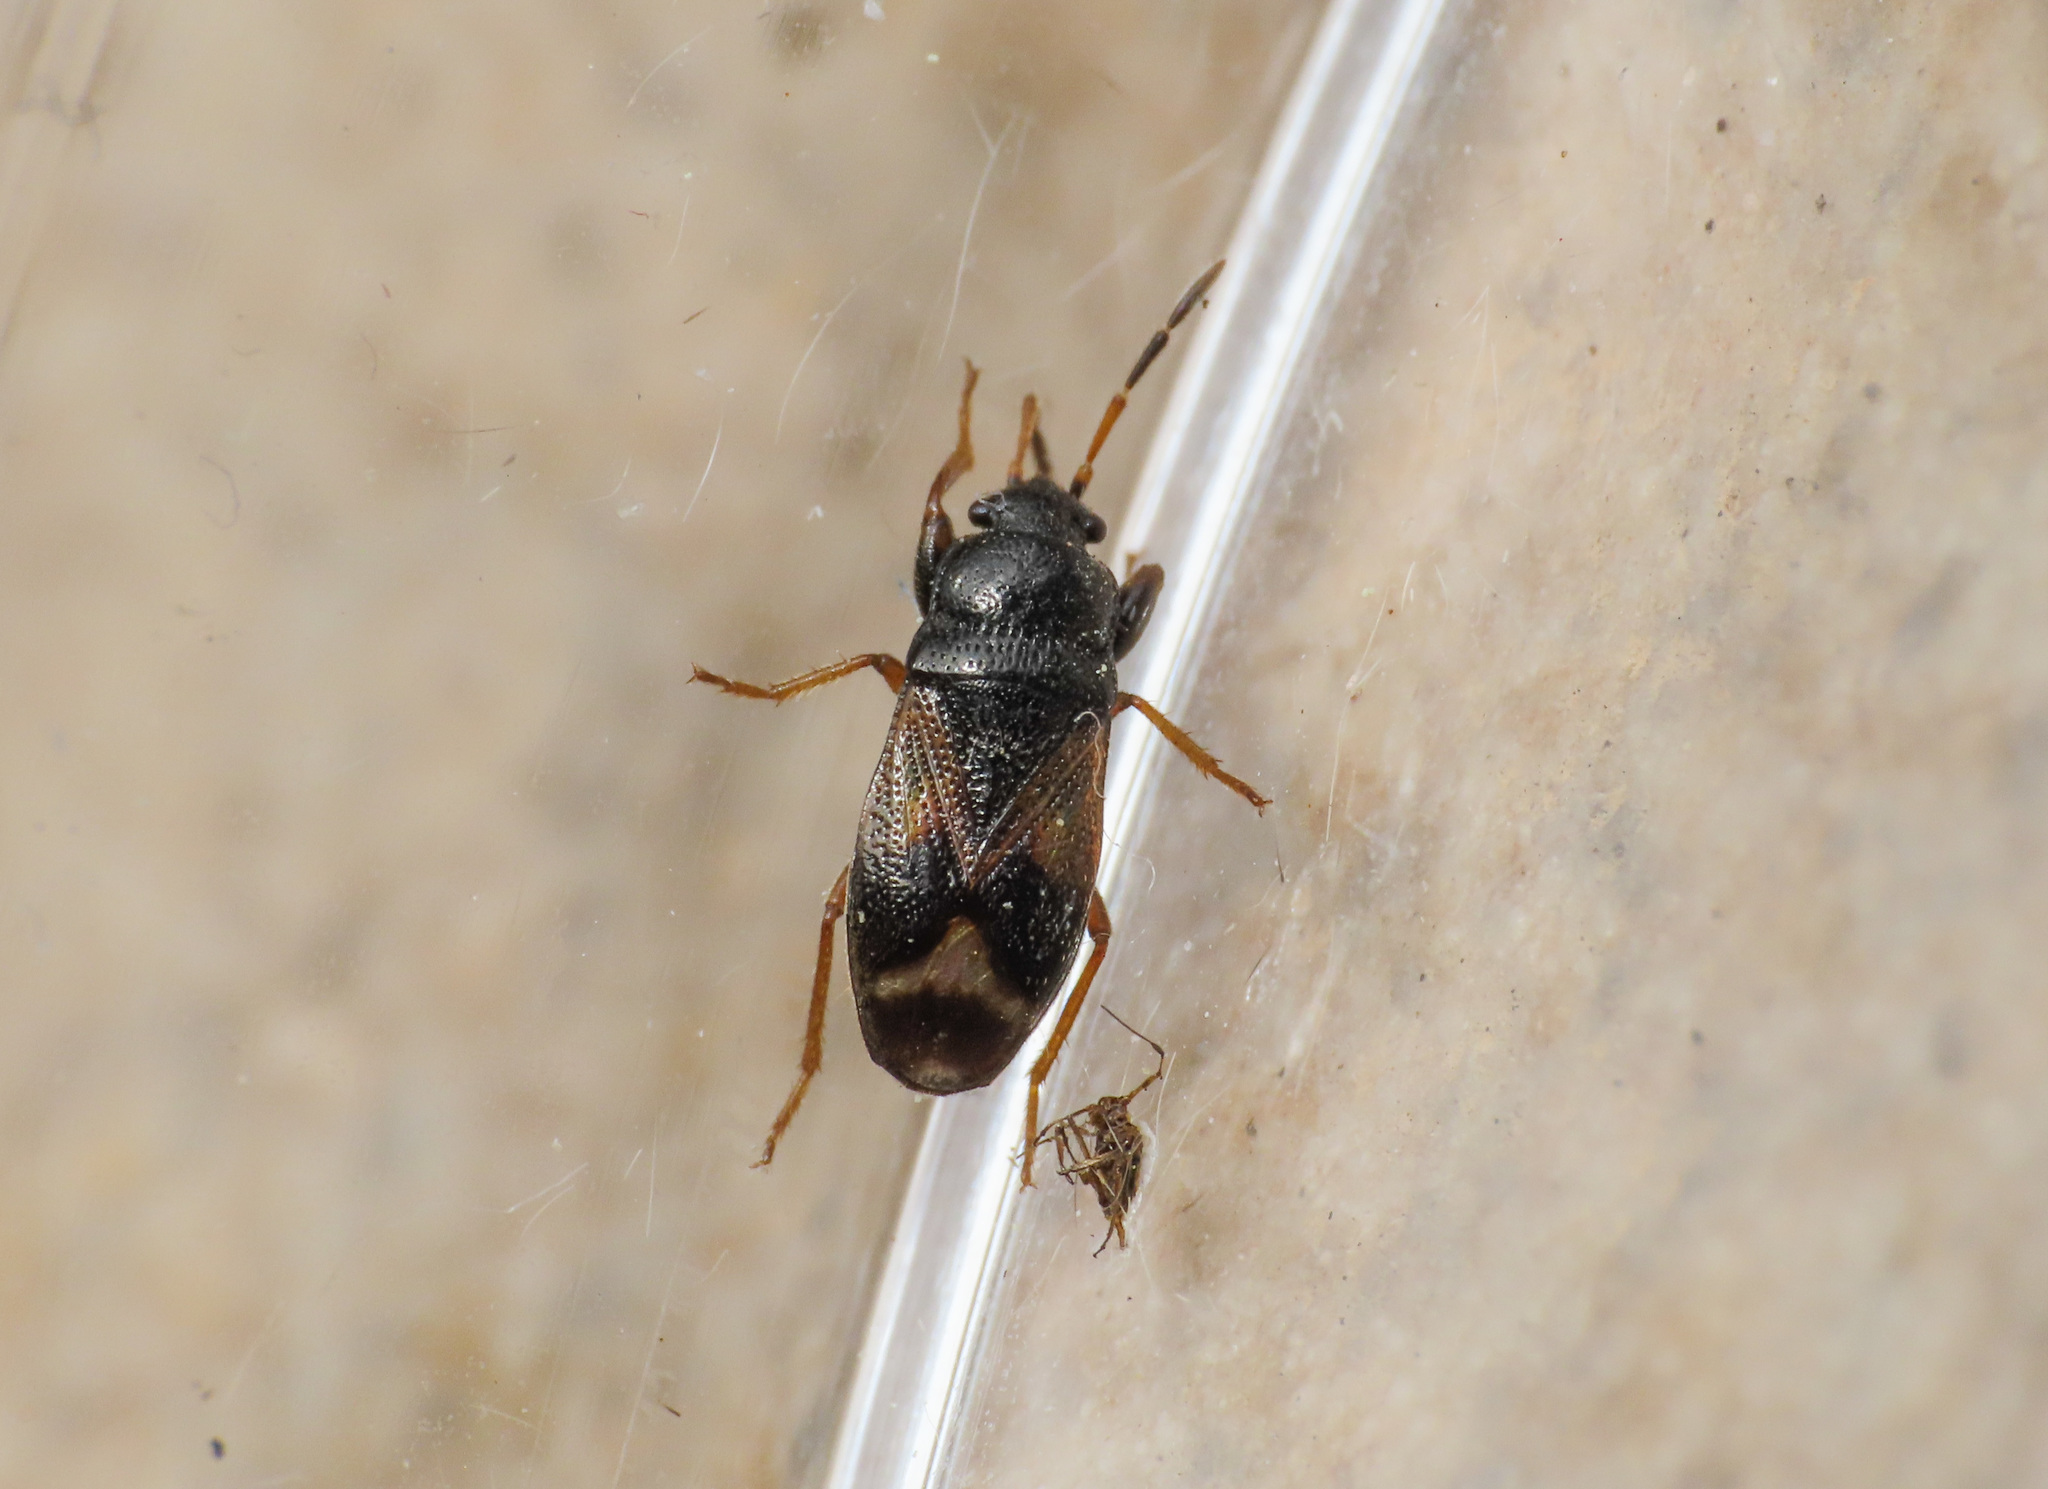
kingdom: Animalia
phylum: Arthropoda
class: Insecta
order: Hemiptera
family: Rhyparochromidae
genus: Megalonotus
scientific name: Megalonotus praetextatus
